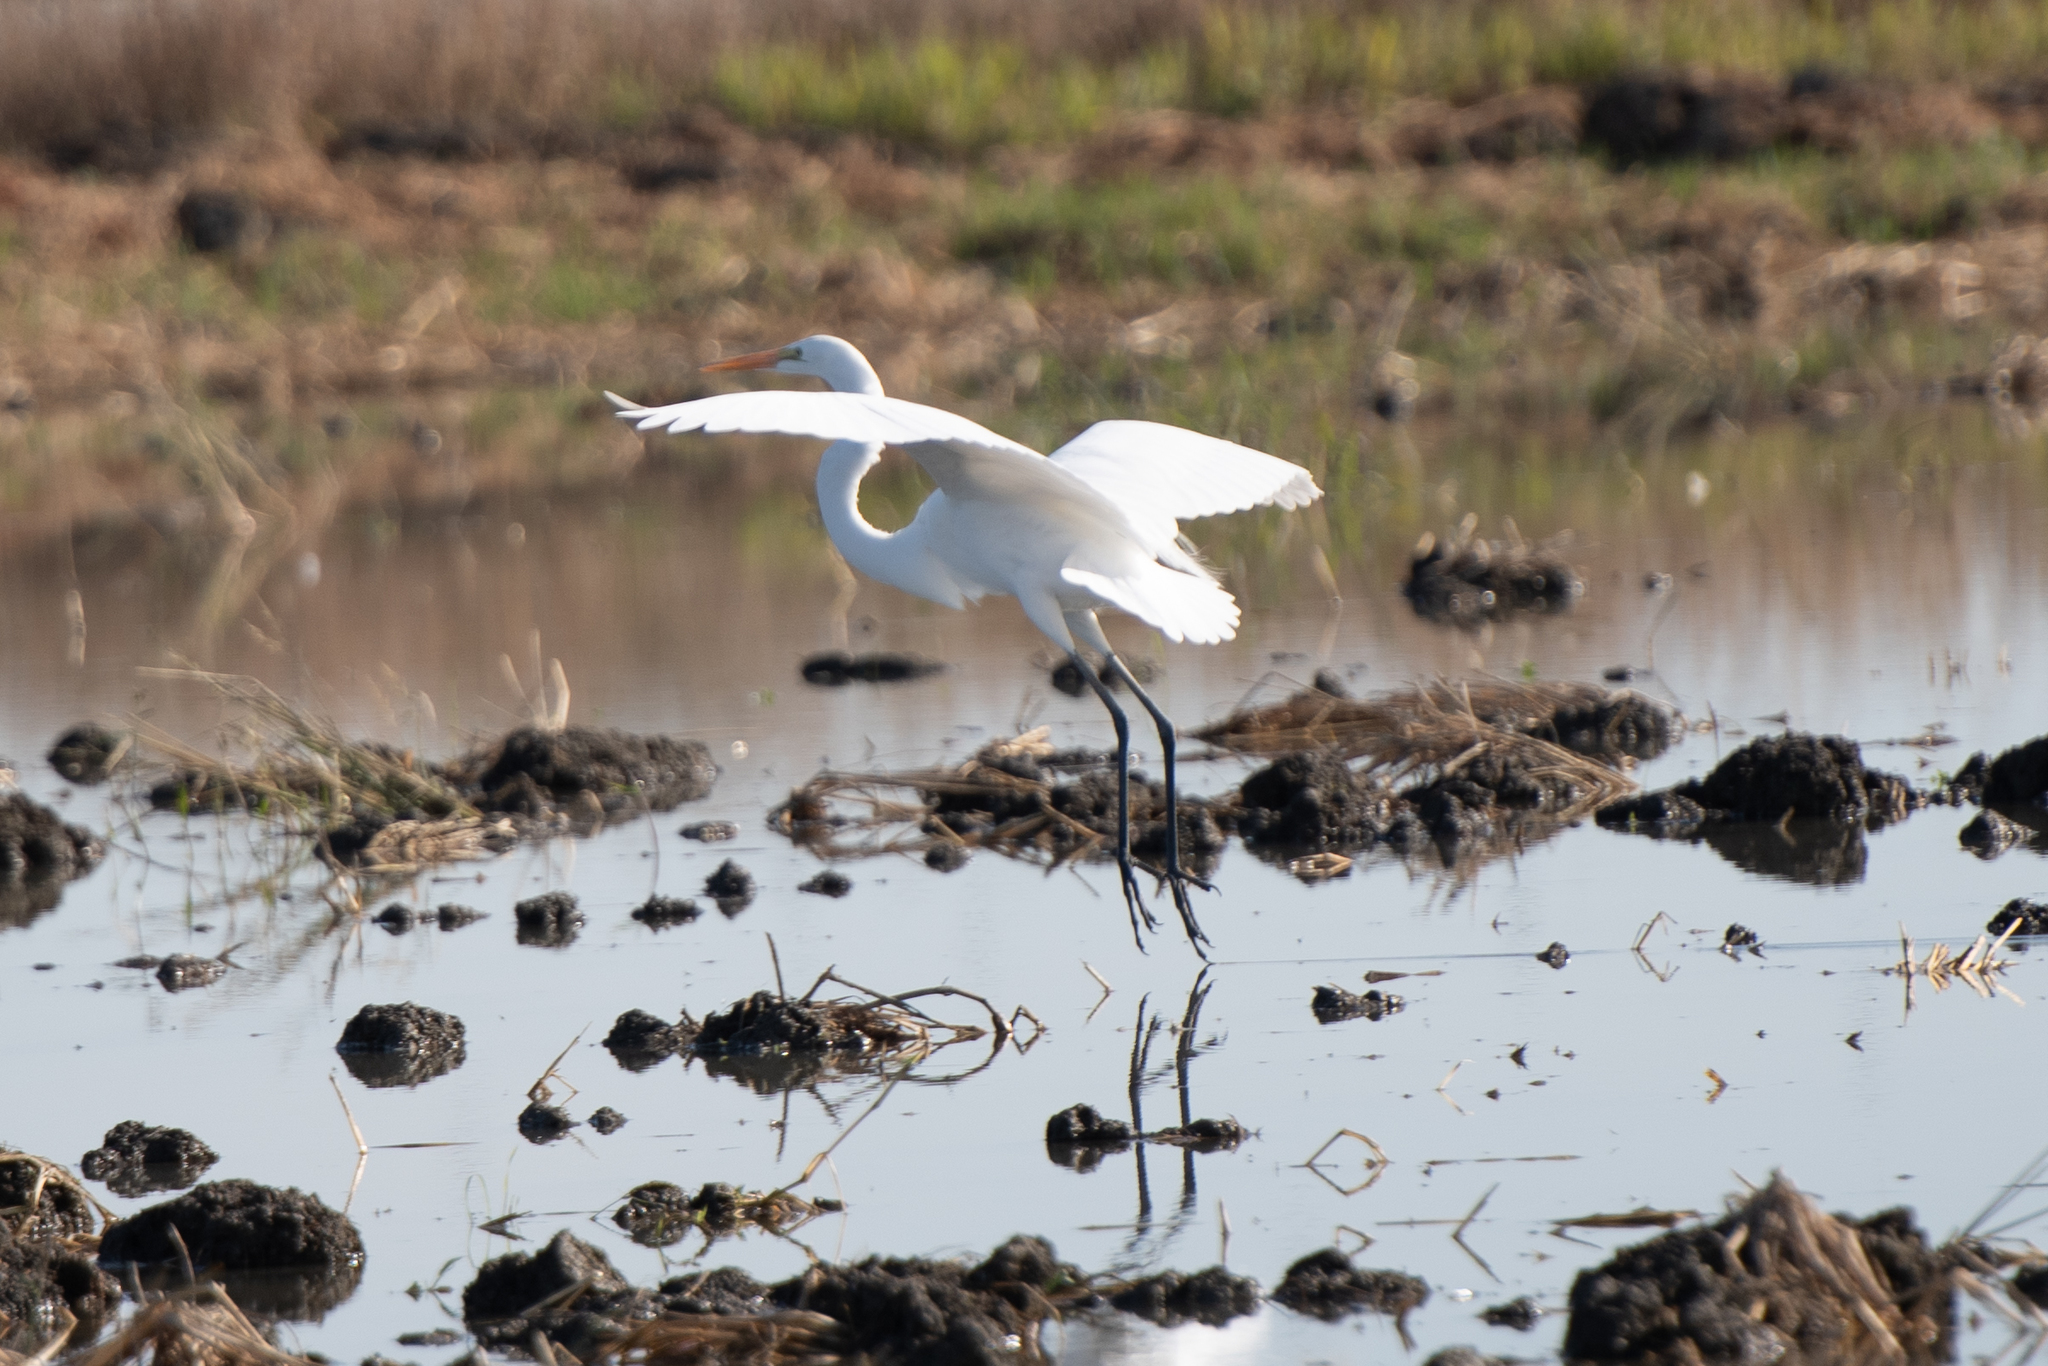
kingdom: Animalia
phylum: Chordata
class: Aves
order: Pelecaniformes
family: Ardeidae
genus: Ardea
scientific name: Ardea alba
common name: Great egret
